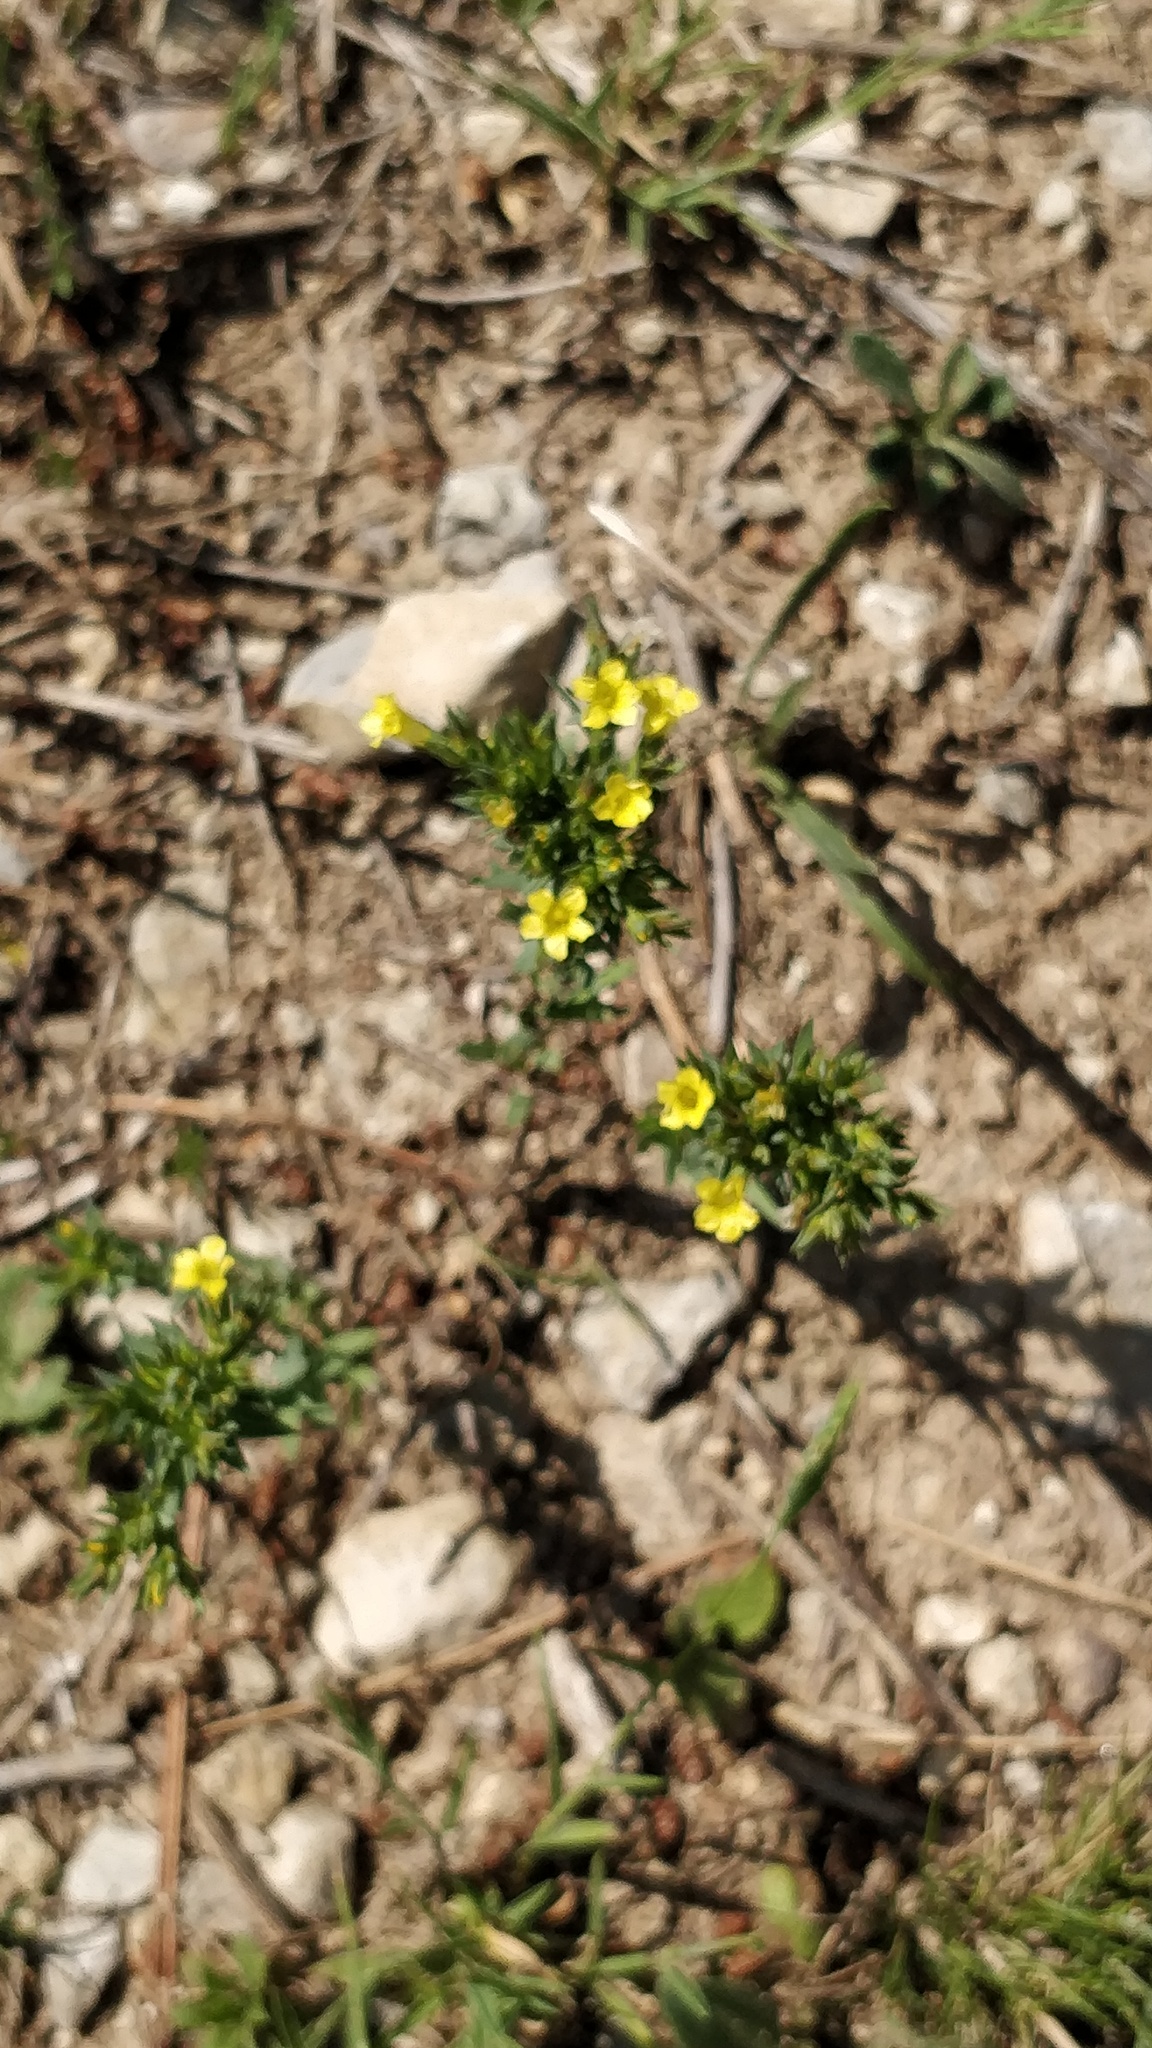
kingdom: Plantae
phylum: Tracheophyta
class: Magnoliopsida
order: Malpighiales
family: Linaceae
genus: Linum
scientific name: Linum strictum
